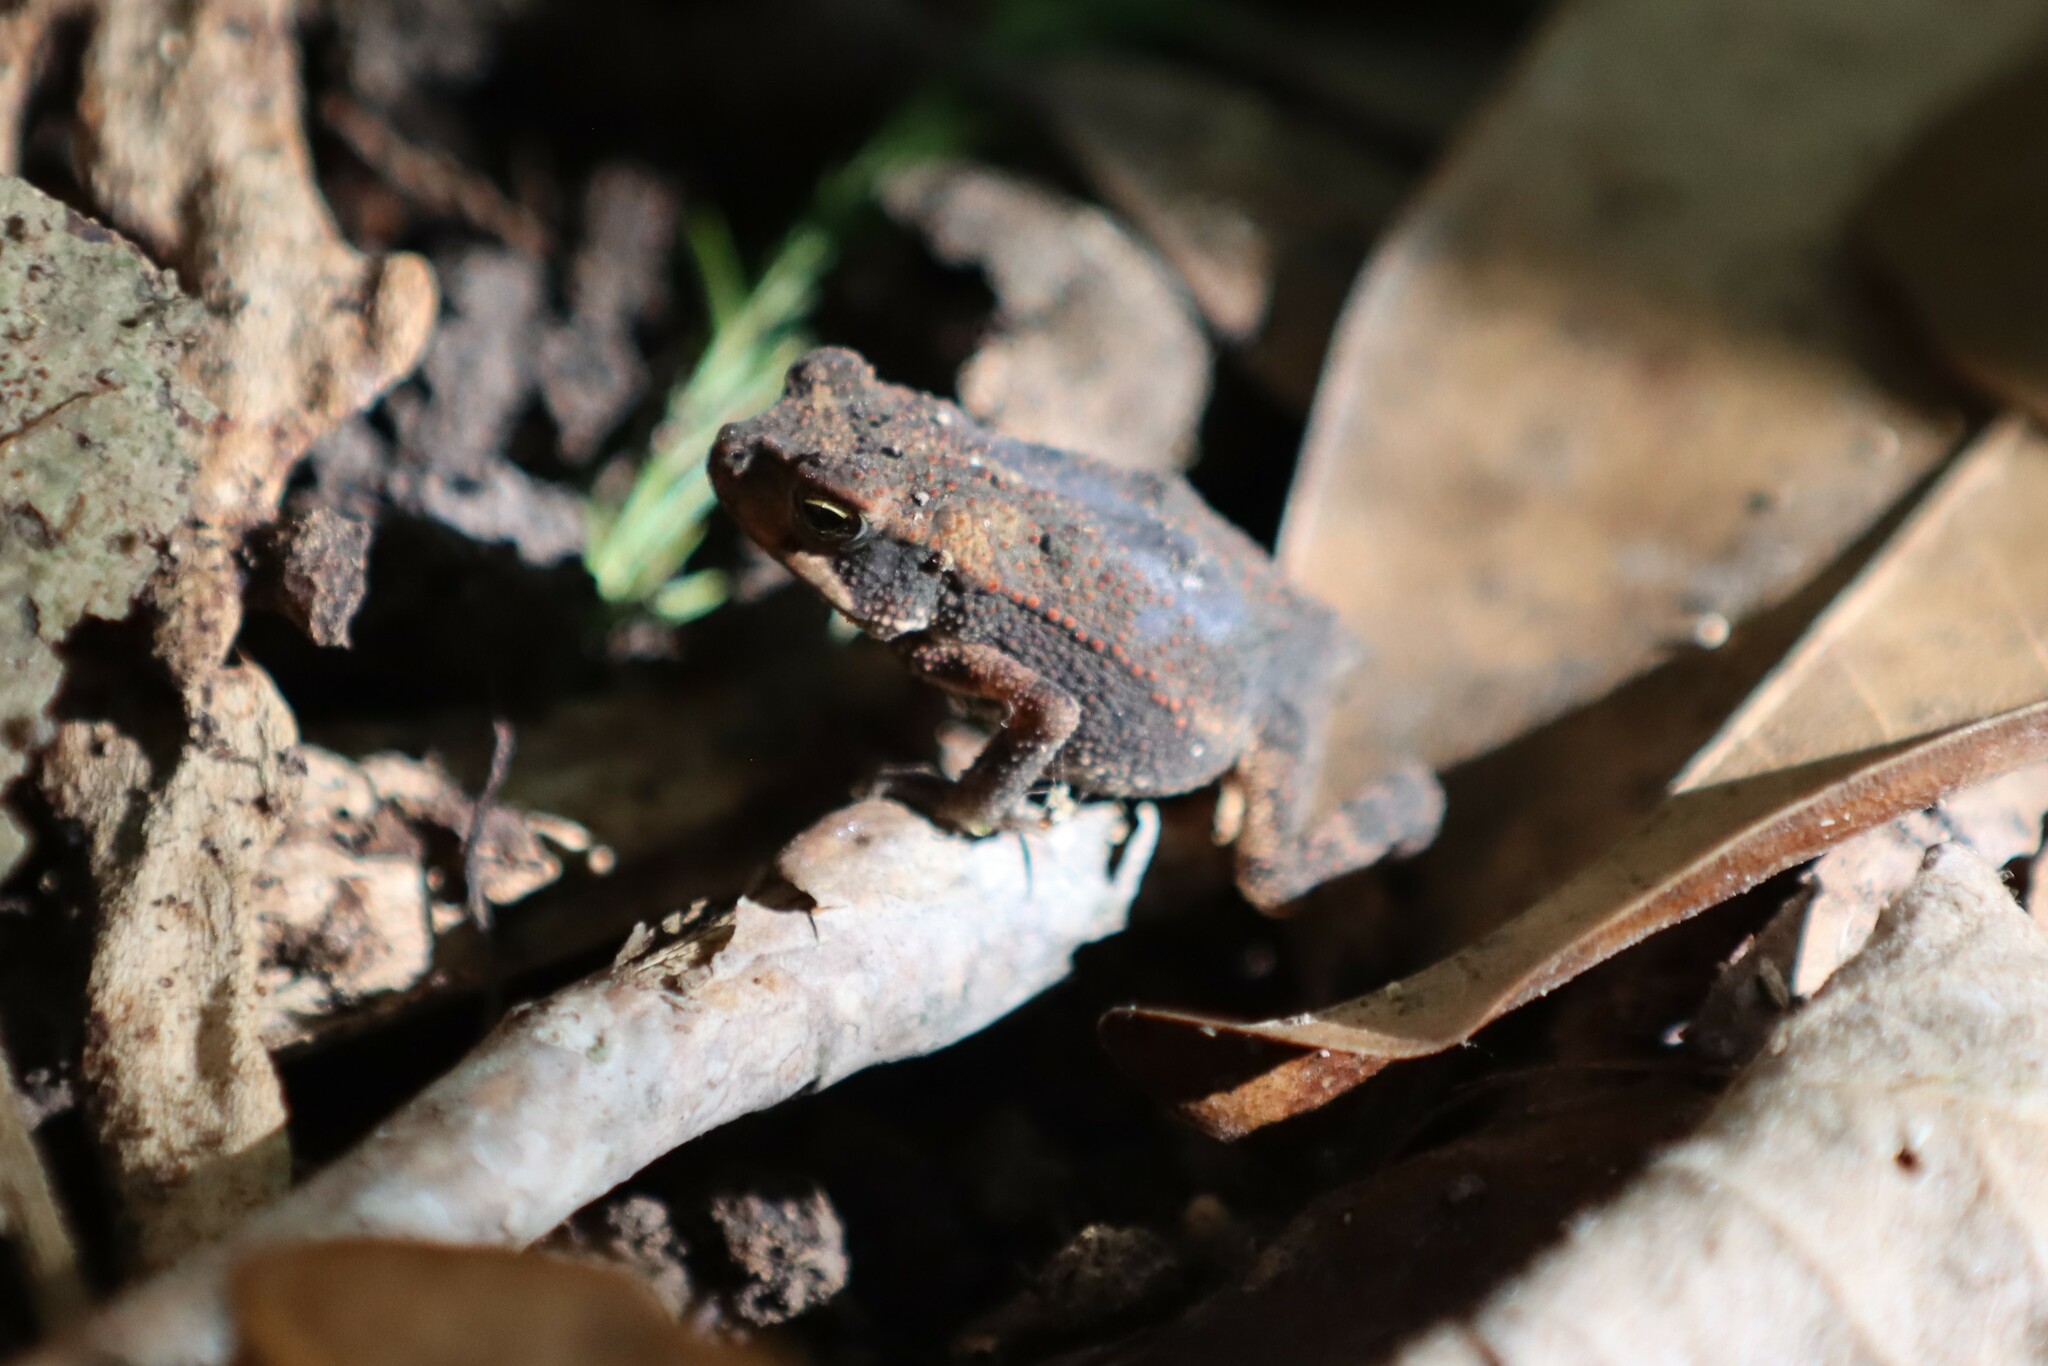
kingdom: Animalia
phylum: Chordata
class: Amphibia
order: Anura
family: Bufonidae
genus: Incilius
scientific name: Incilius nebulifer
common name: Gulf coast toad
